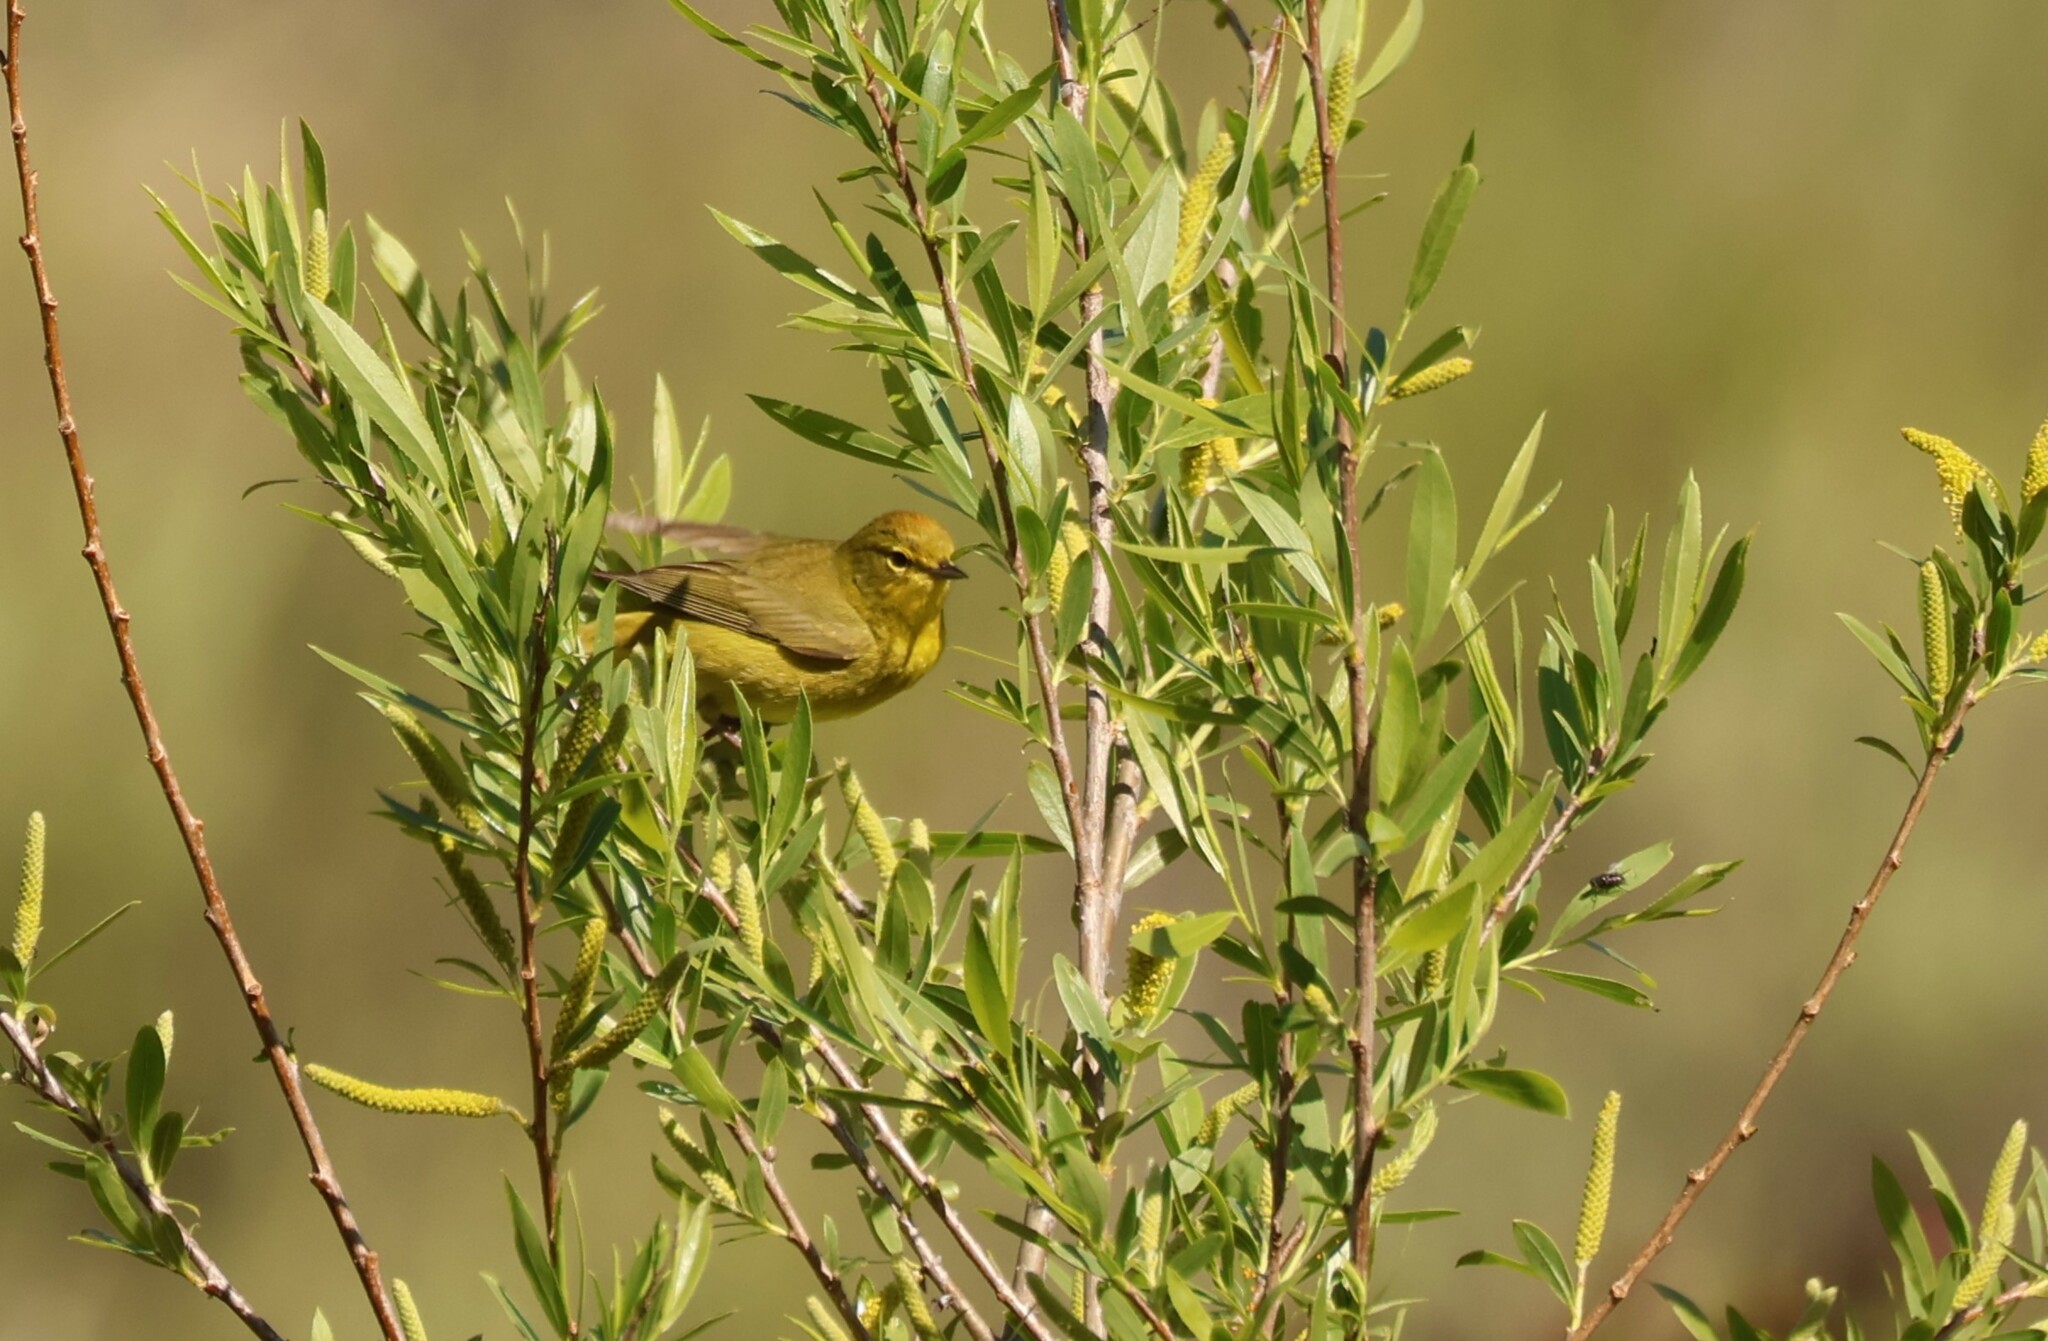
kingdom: Animalia
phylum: Chordata
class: Aves
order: Passeriformes
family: Parulidae
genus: Leiothlypis
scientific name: Leiothlypis celata
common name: Orange-crowned warbler
